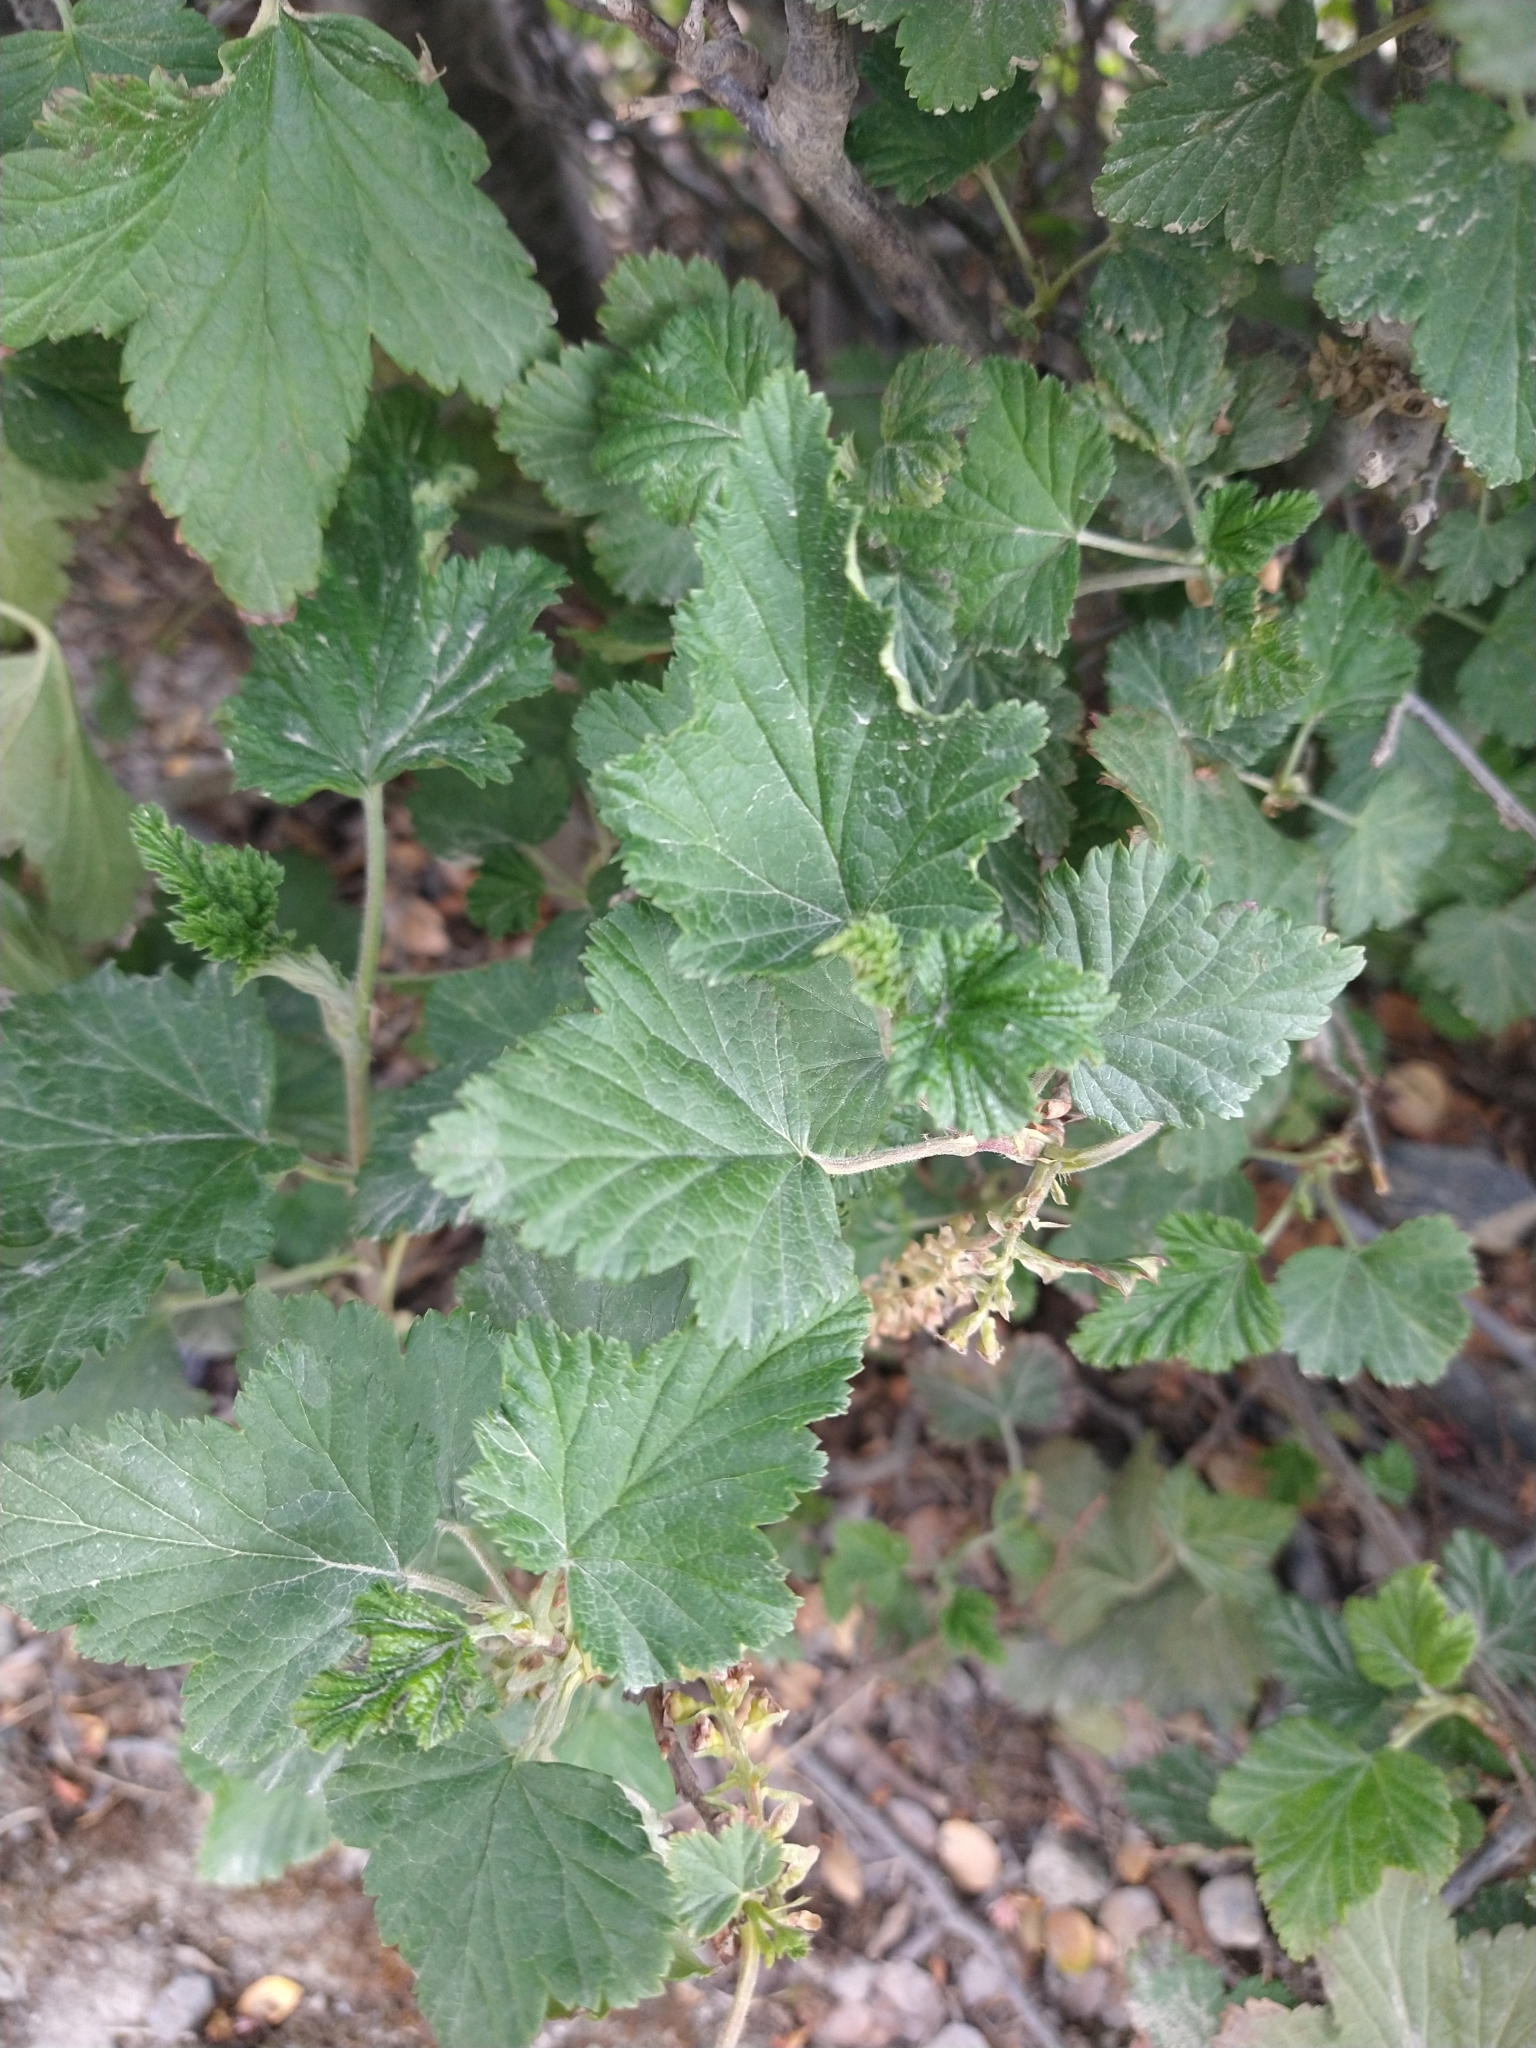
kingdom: Plantae
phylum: Tracheophyta
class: Magnoliopsida
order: Saxifragales
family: Grossulariaceae
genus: Ribes
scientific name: Ribes magellanicum
